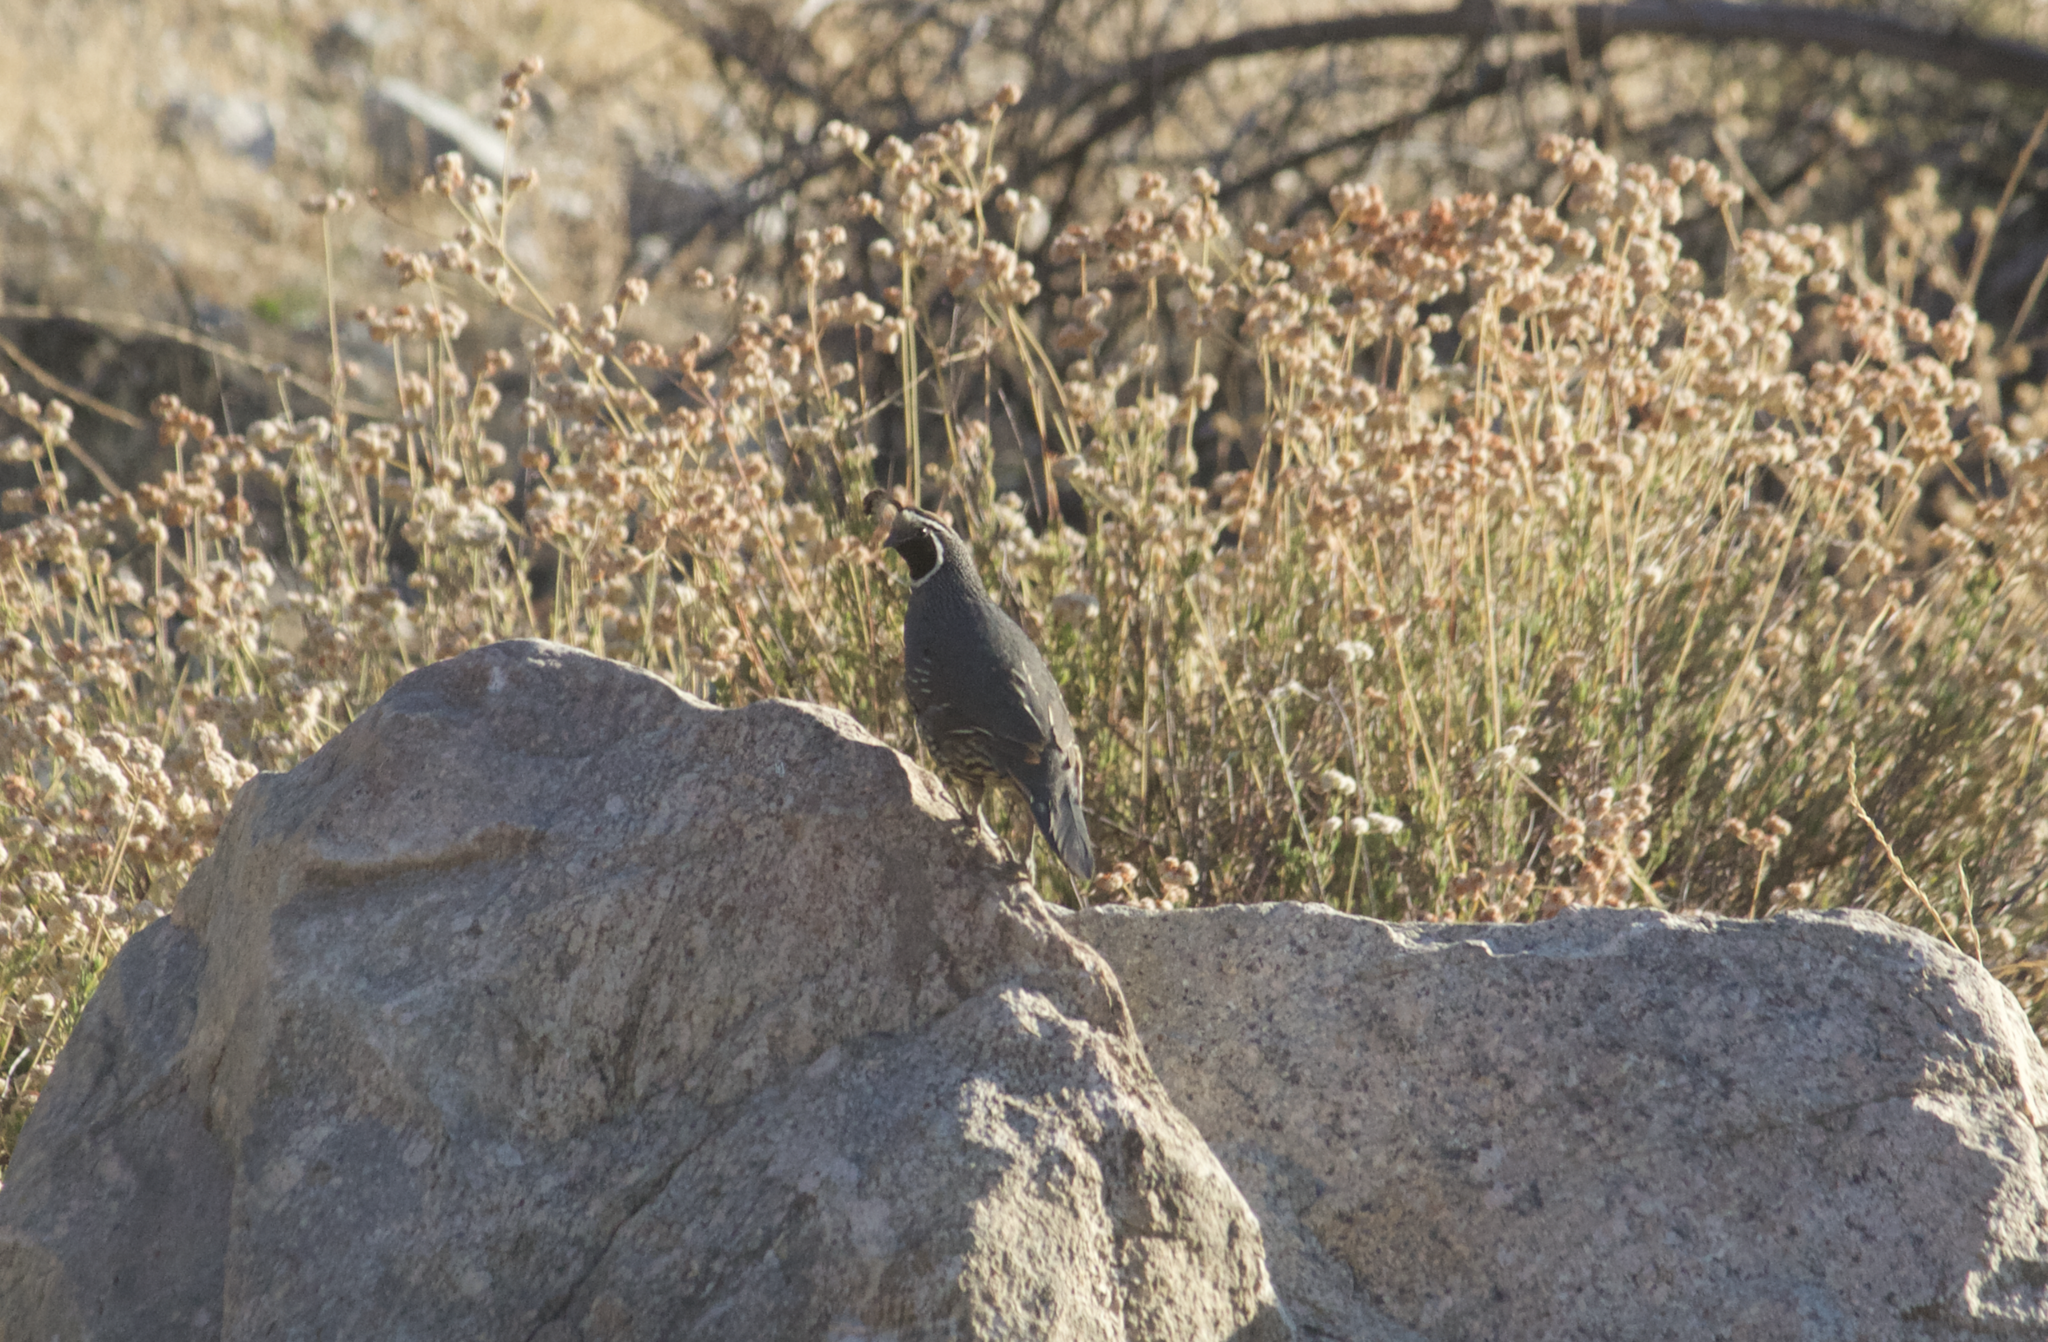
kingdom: Animalia
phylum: Chordata
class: Aves
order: Galliformes
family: Odontophoridae
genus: Callipepla
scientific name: Callipepla californica
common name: California quail
